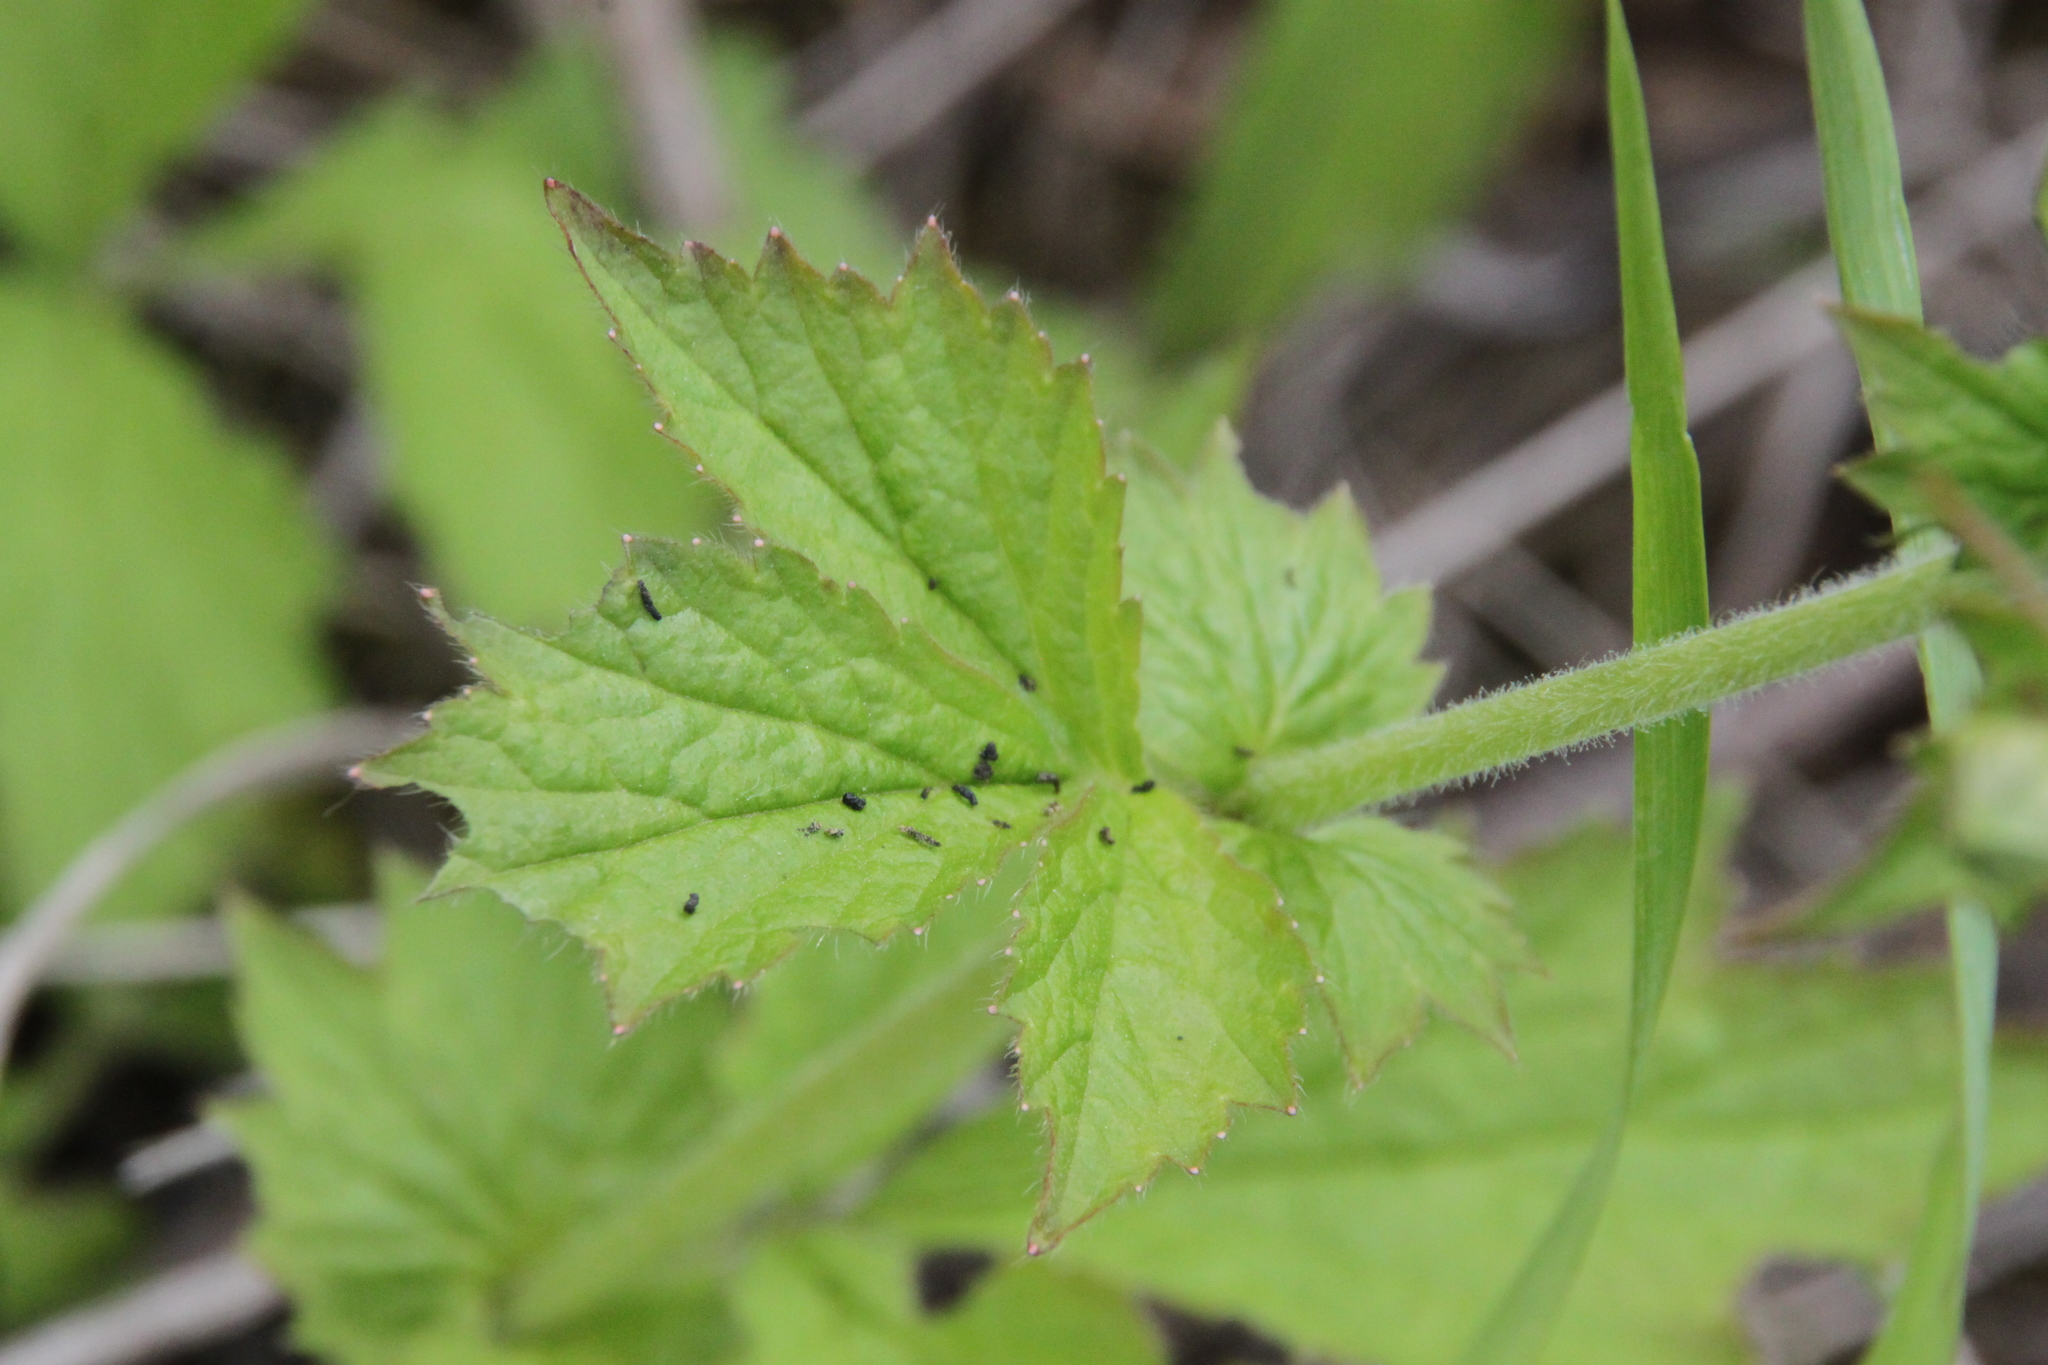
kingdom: Plantae
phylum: Tracheophyta
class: Magnoliopsida
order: Rosales
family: Rosaceae
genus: Geum
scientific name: Geum aleppicum
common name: Yellow avens
